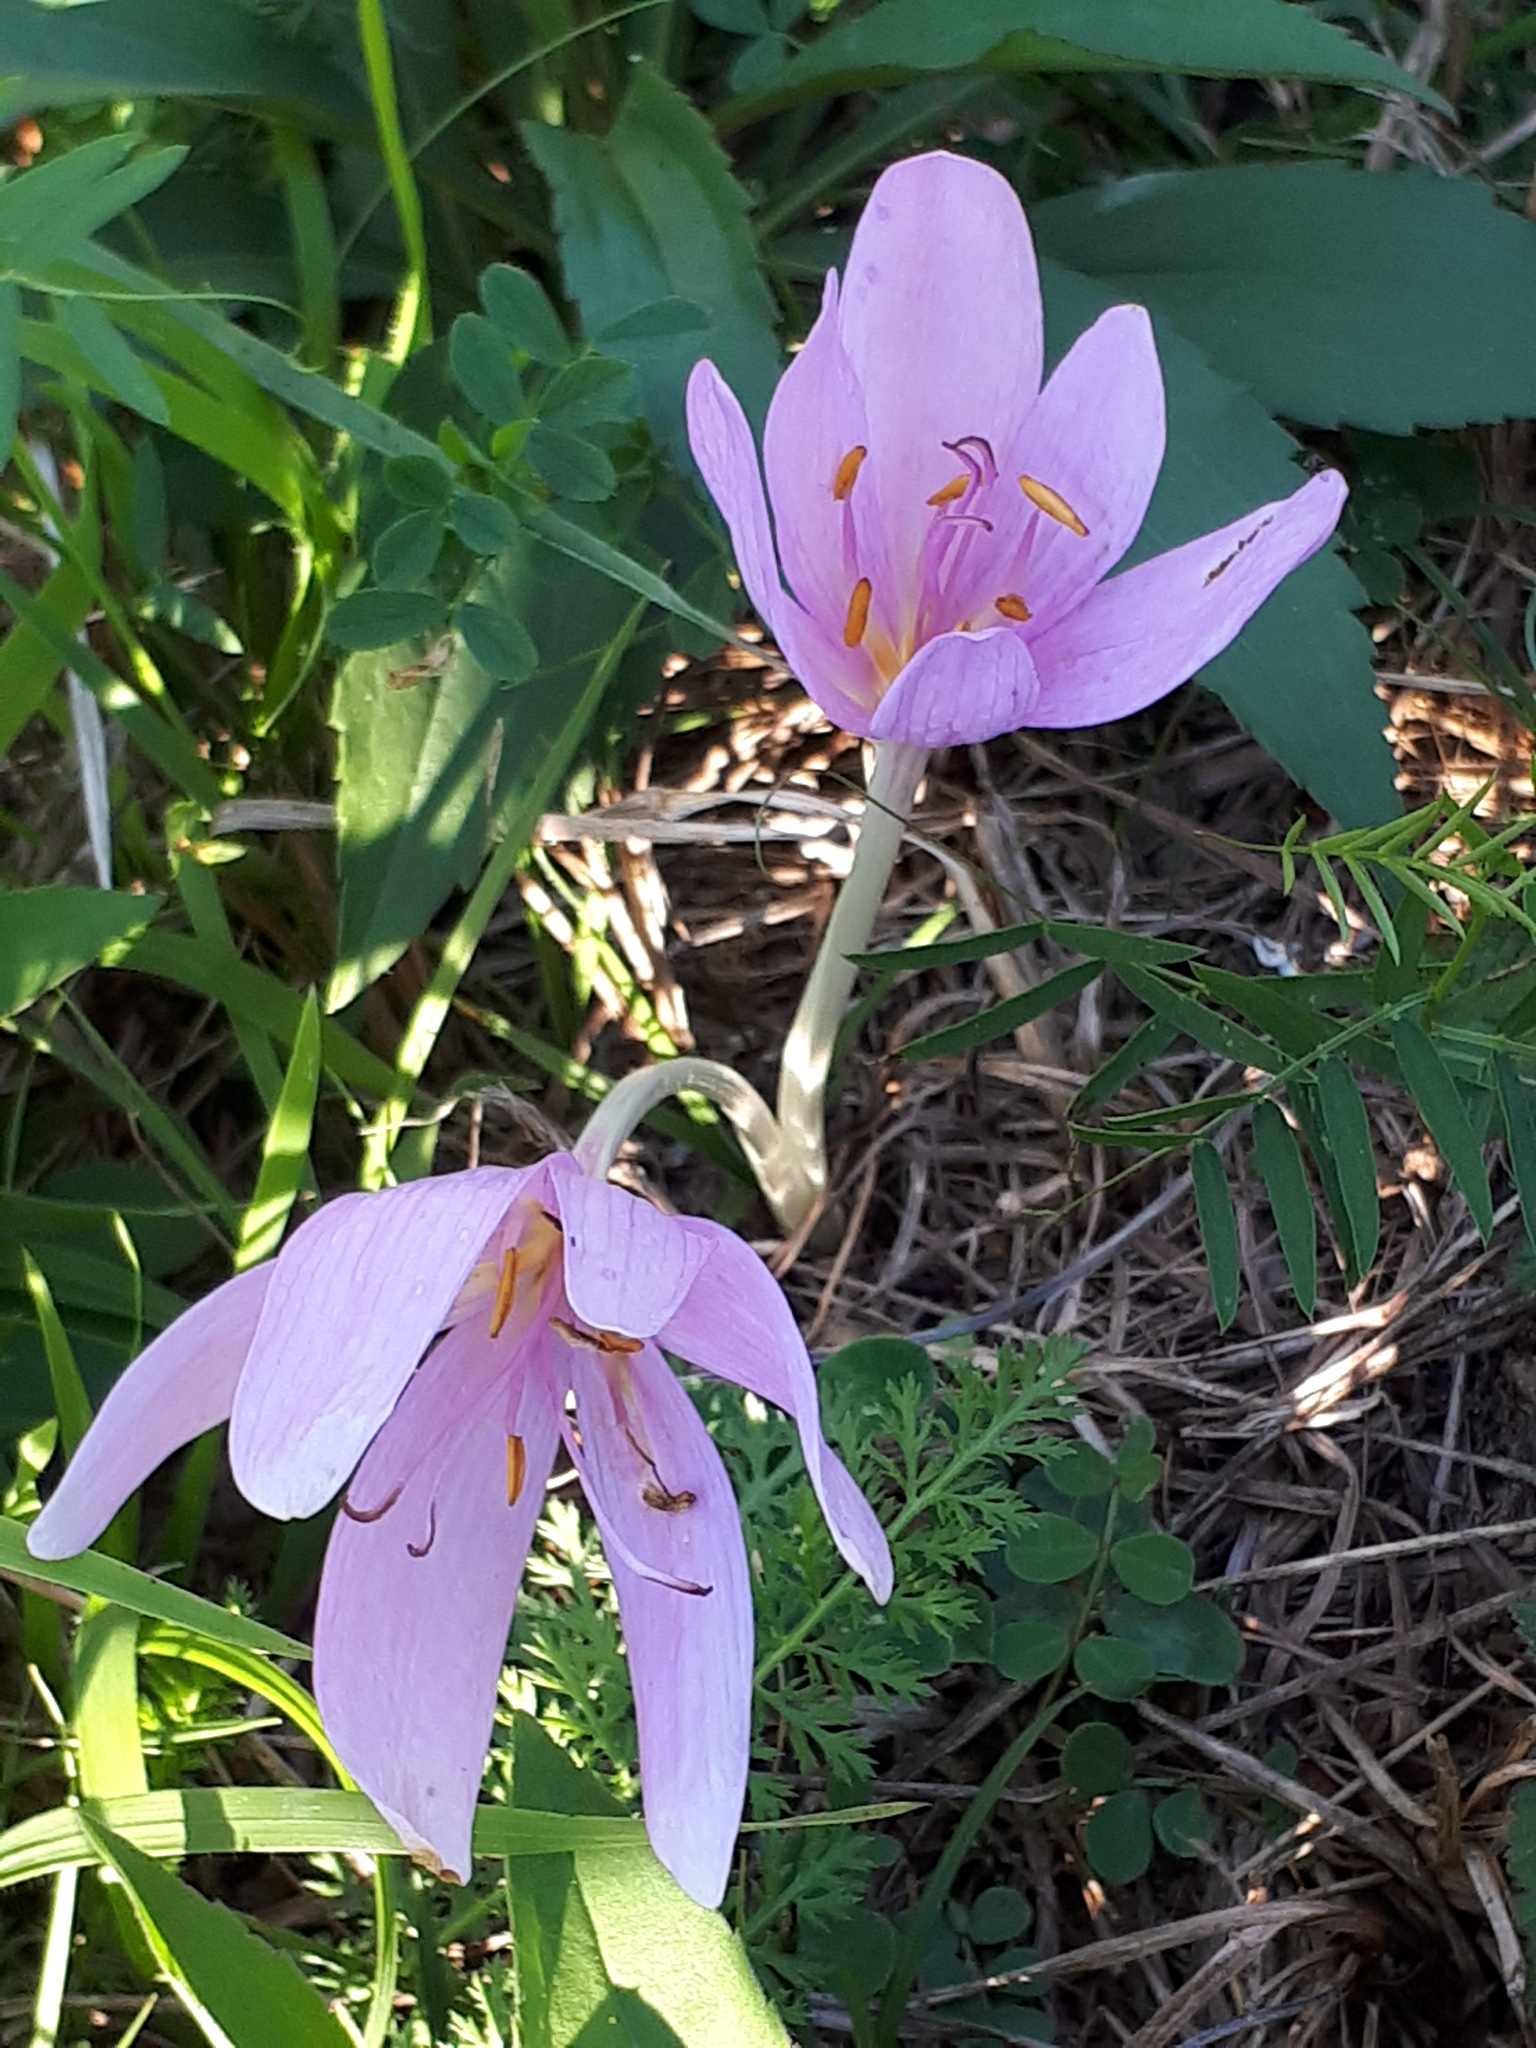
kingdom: Plantae
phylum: Tracheophyta
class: Liliopsida
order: Liliales
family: Colchicaceae
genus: Colchicum
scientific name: Colchicum autumnale
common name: Autumn crocus
